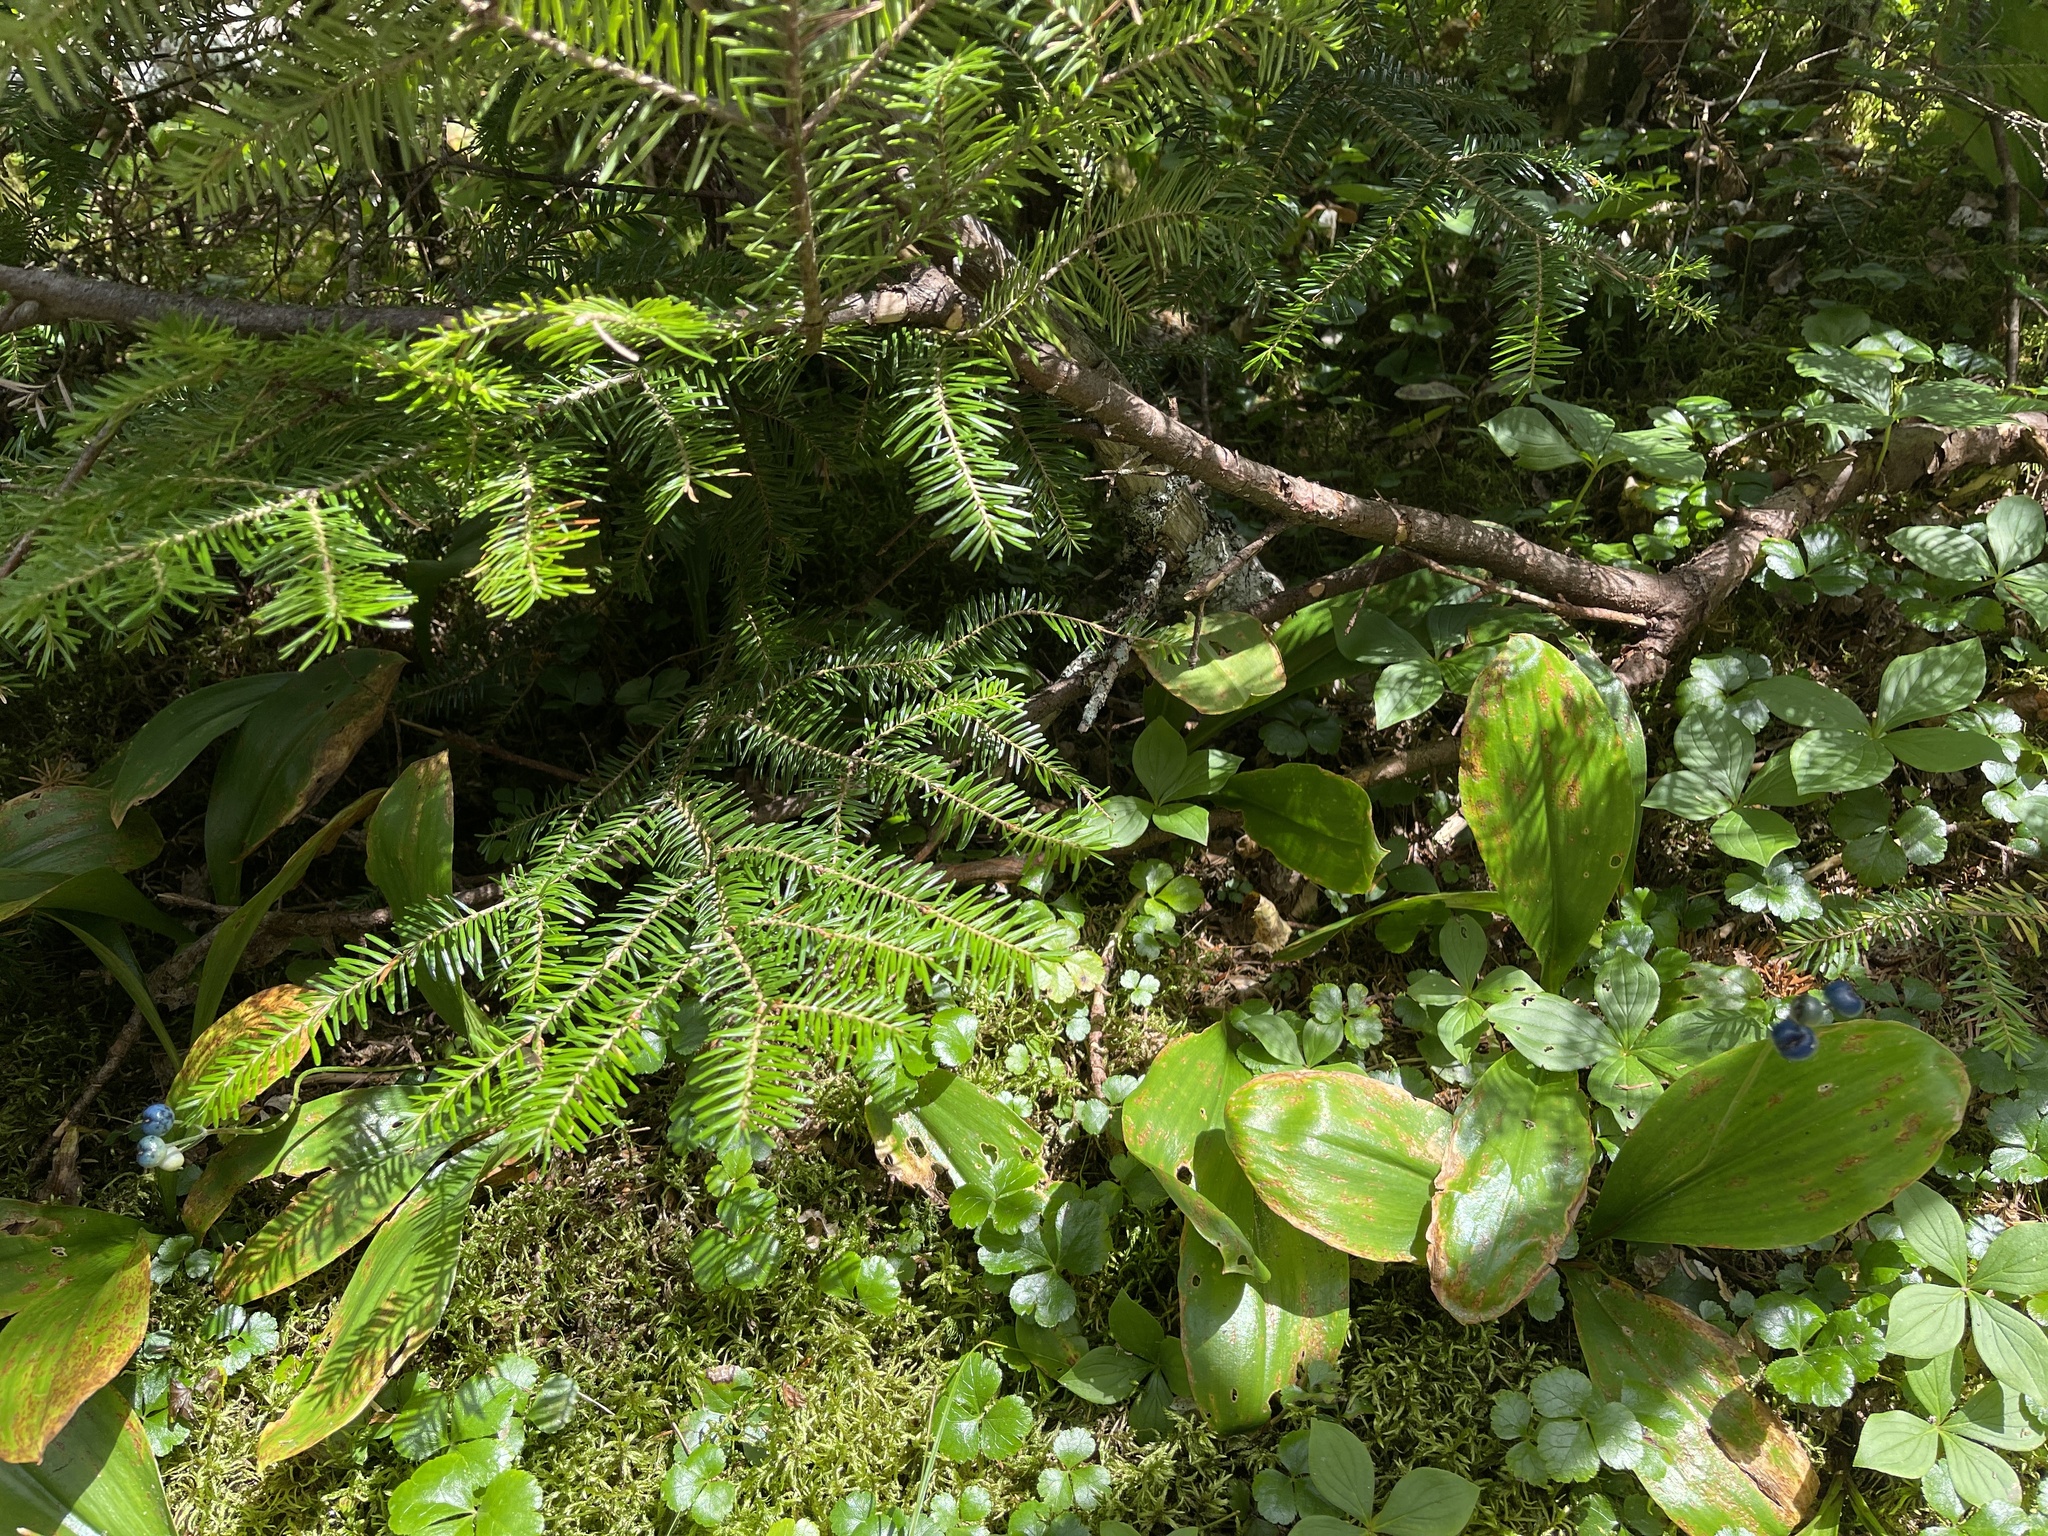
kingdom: Plantae
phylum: Tracheophyta
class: Liliopsida
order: Liliales
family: Liliaceae
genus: Clintonia
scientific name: Clintonia borealis
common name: Yellow clintonia
